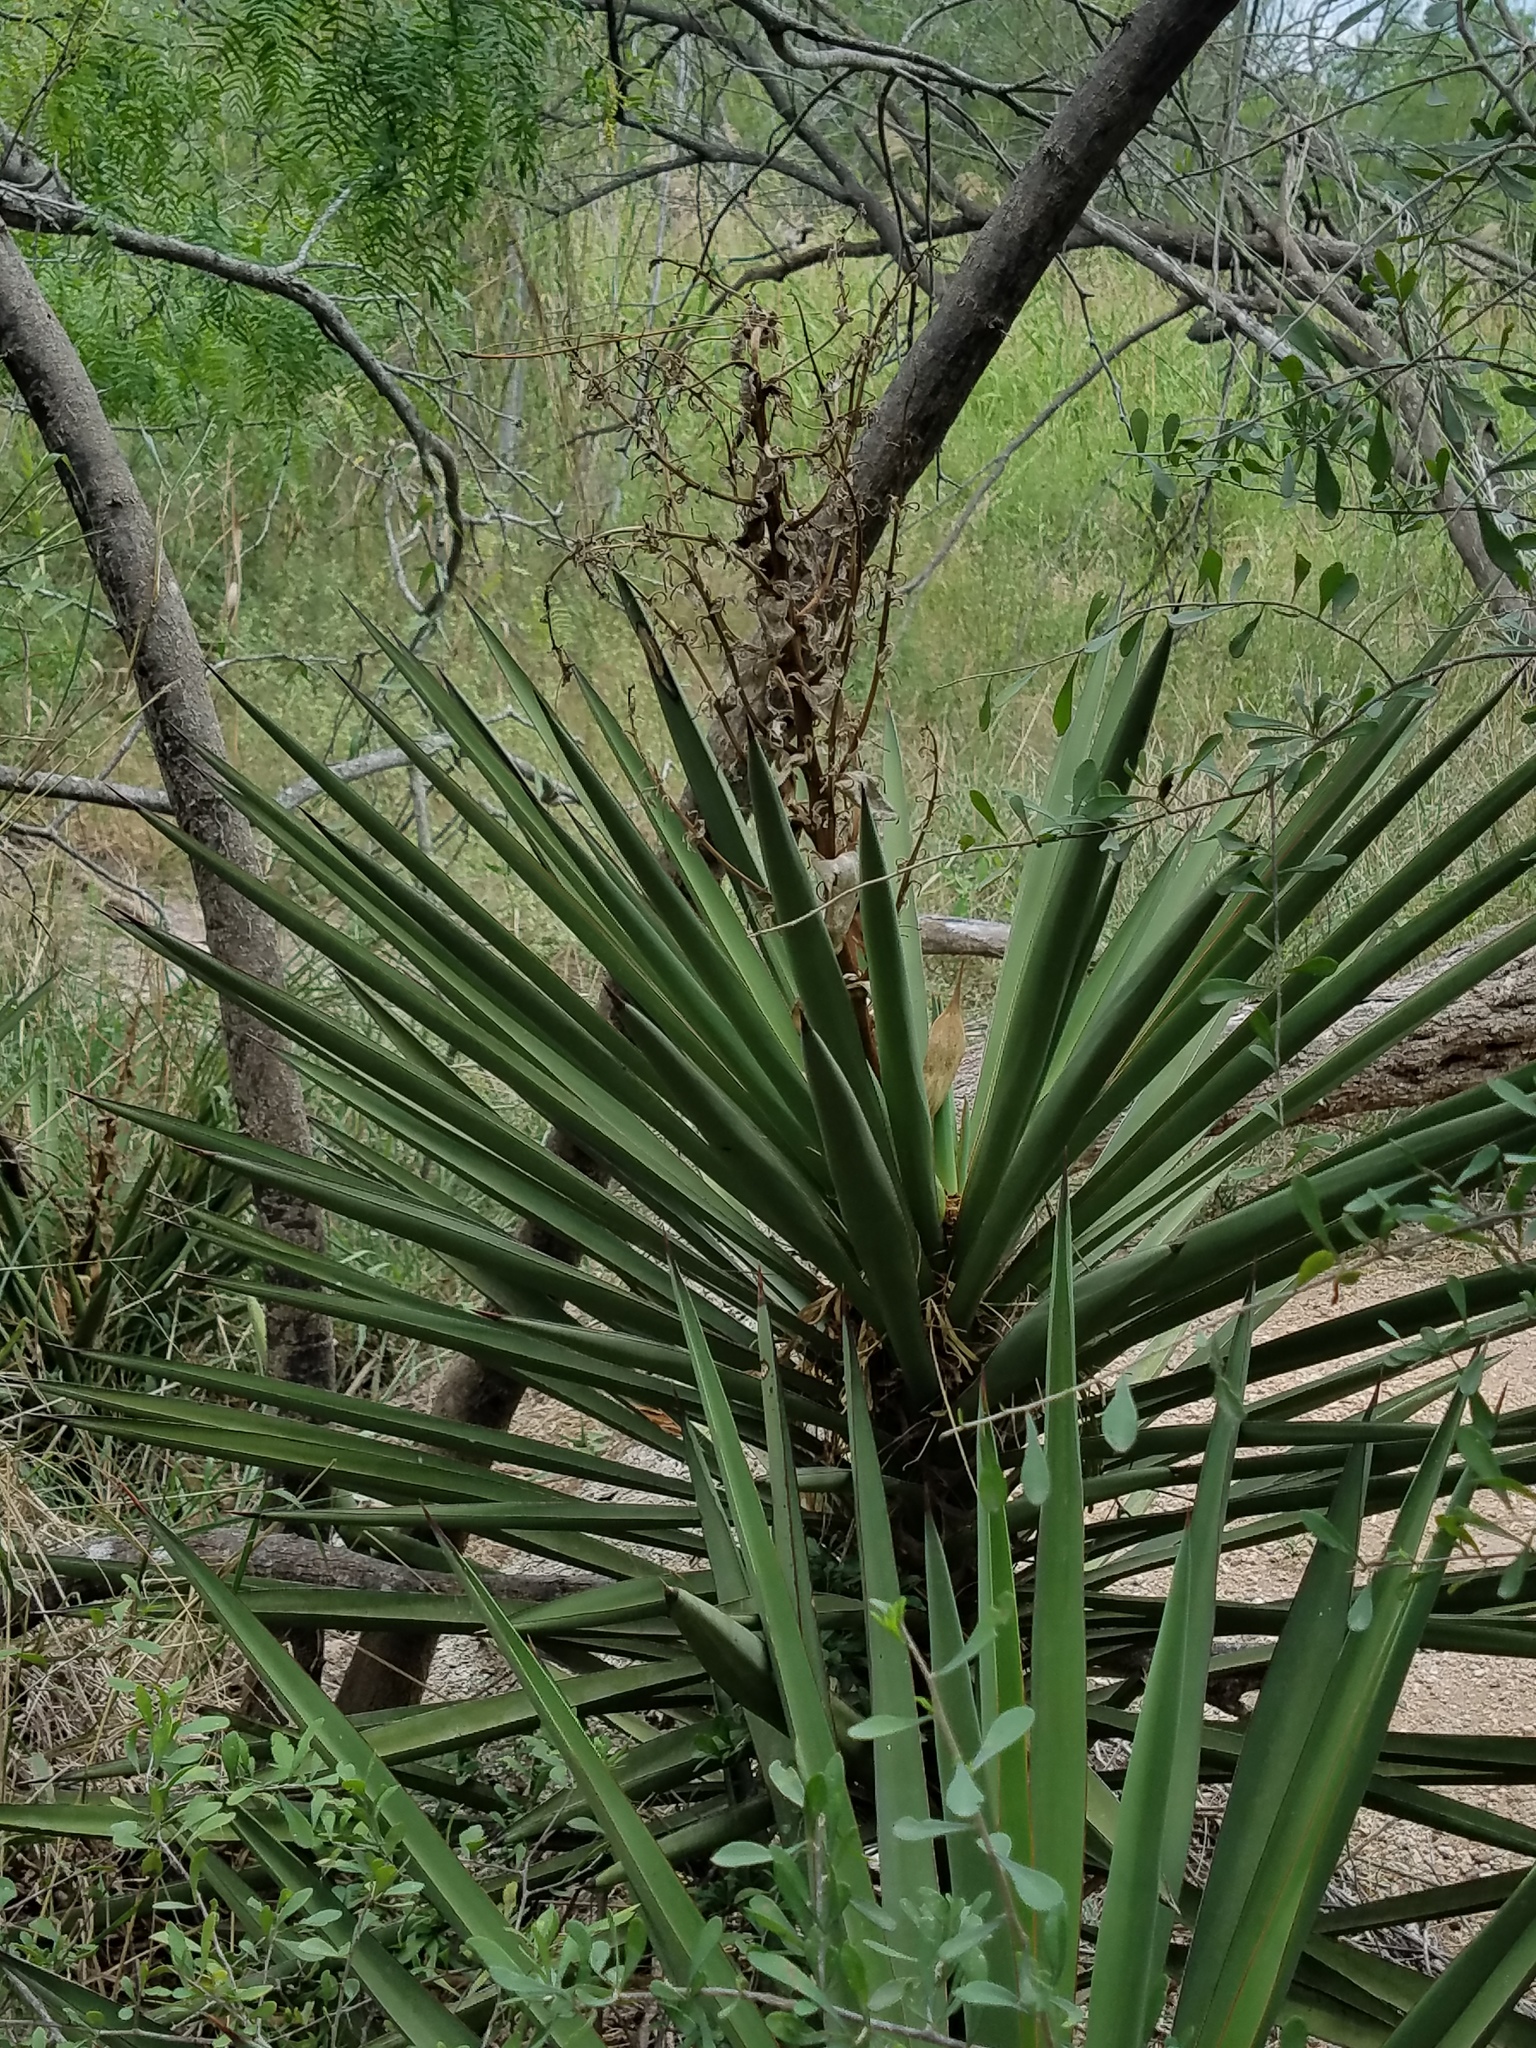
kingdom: Plantae
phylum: Tracheophyta
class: Liliopsida
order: Asparagales
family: Asparagaceae
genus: Yucca
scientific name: Yucca treculiana
